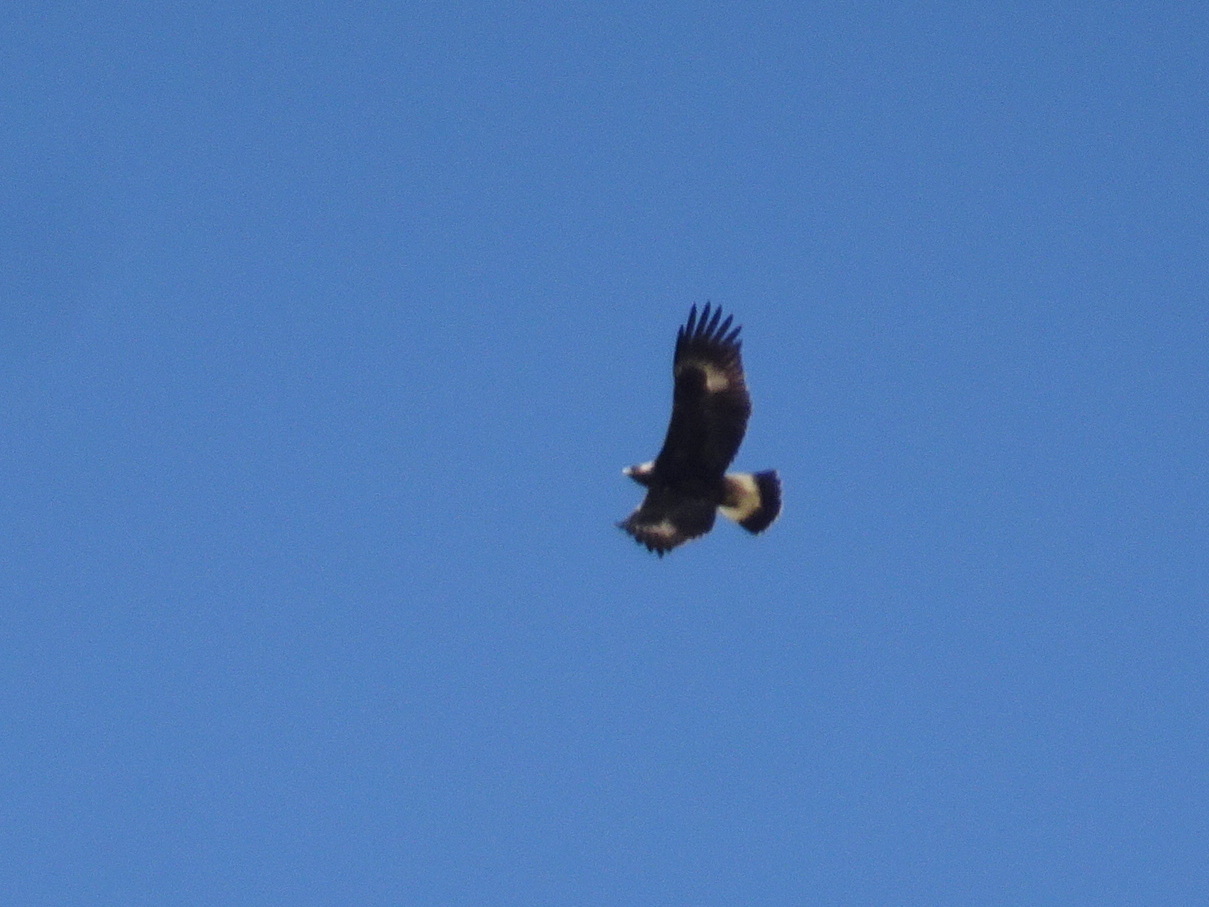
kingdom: Animalia
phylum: Chordata
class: Aves
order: Accipitriformes
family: Accipitridae
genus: Aquila
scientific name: Aquila chrysaetos
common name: Golden eagle
